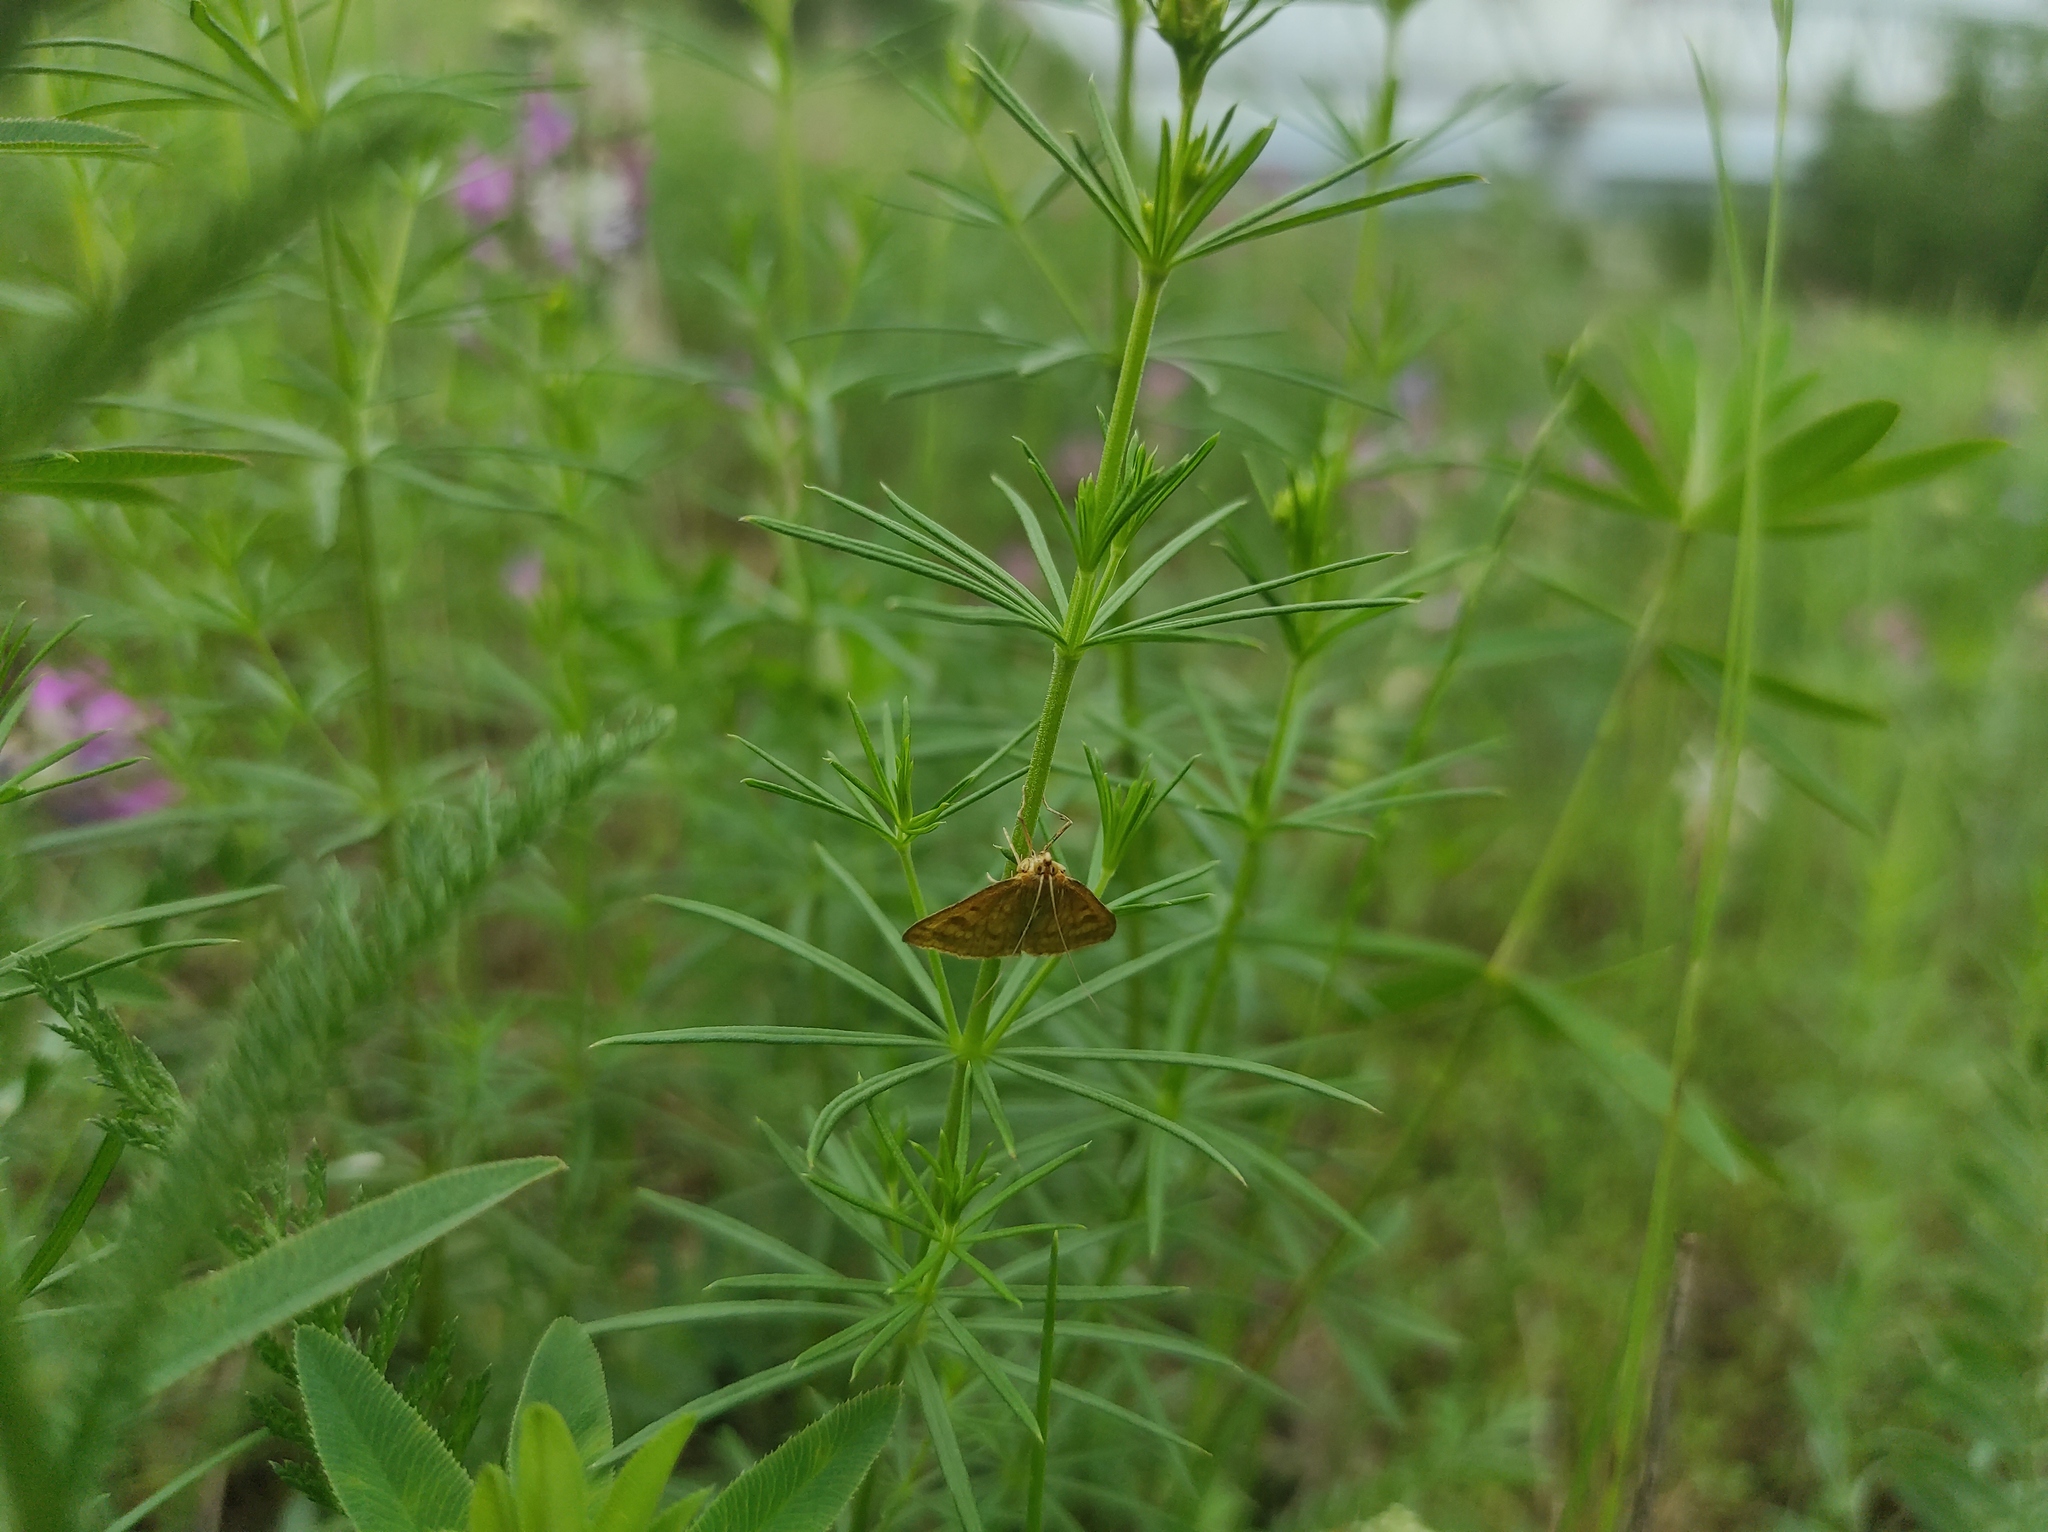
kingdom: Plantae
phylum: Tracheophyta
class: Magnoliopsida
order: Gentianales
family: Rubiaceae
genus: Galium
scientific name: Galium verum
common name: Lady's bedstraw
